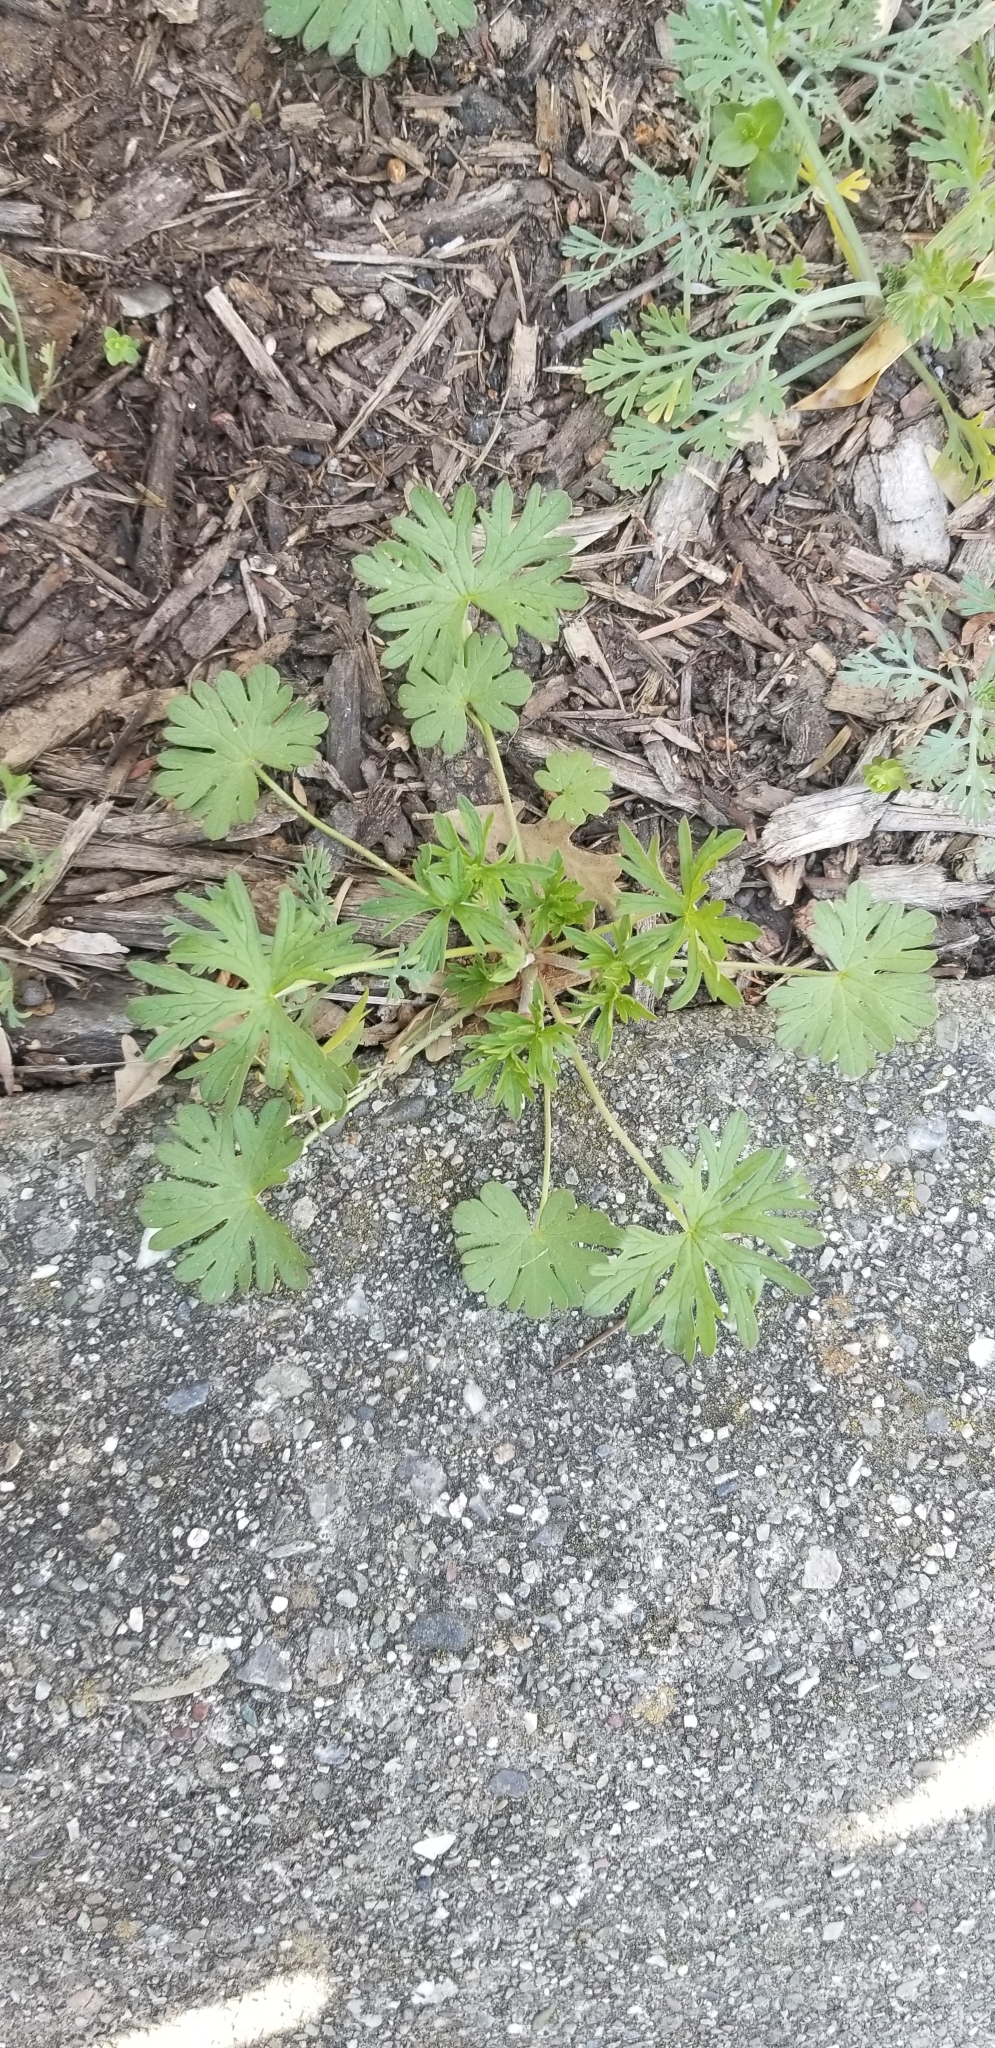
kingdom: Plantae
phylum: Tracheophyta
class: Magnoliopsida
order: Geraniales
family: Geraniaceae
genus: Geranium
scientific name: Geranium
